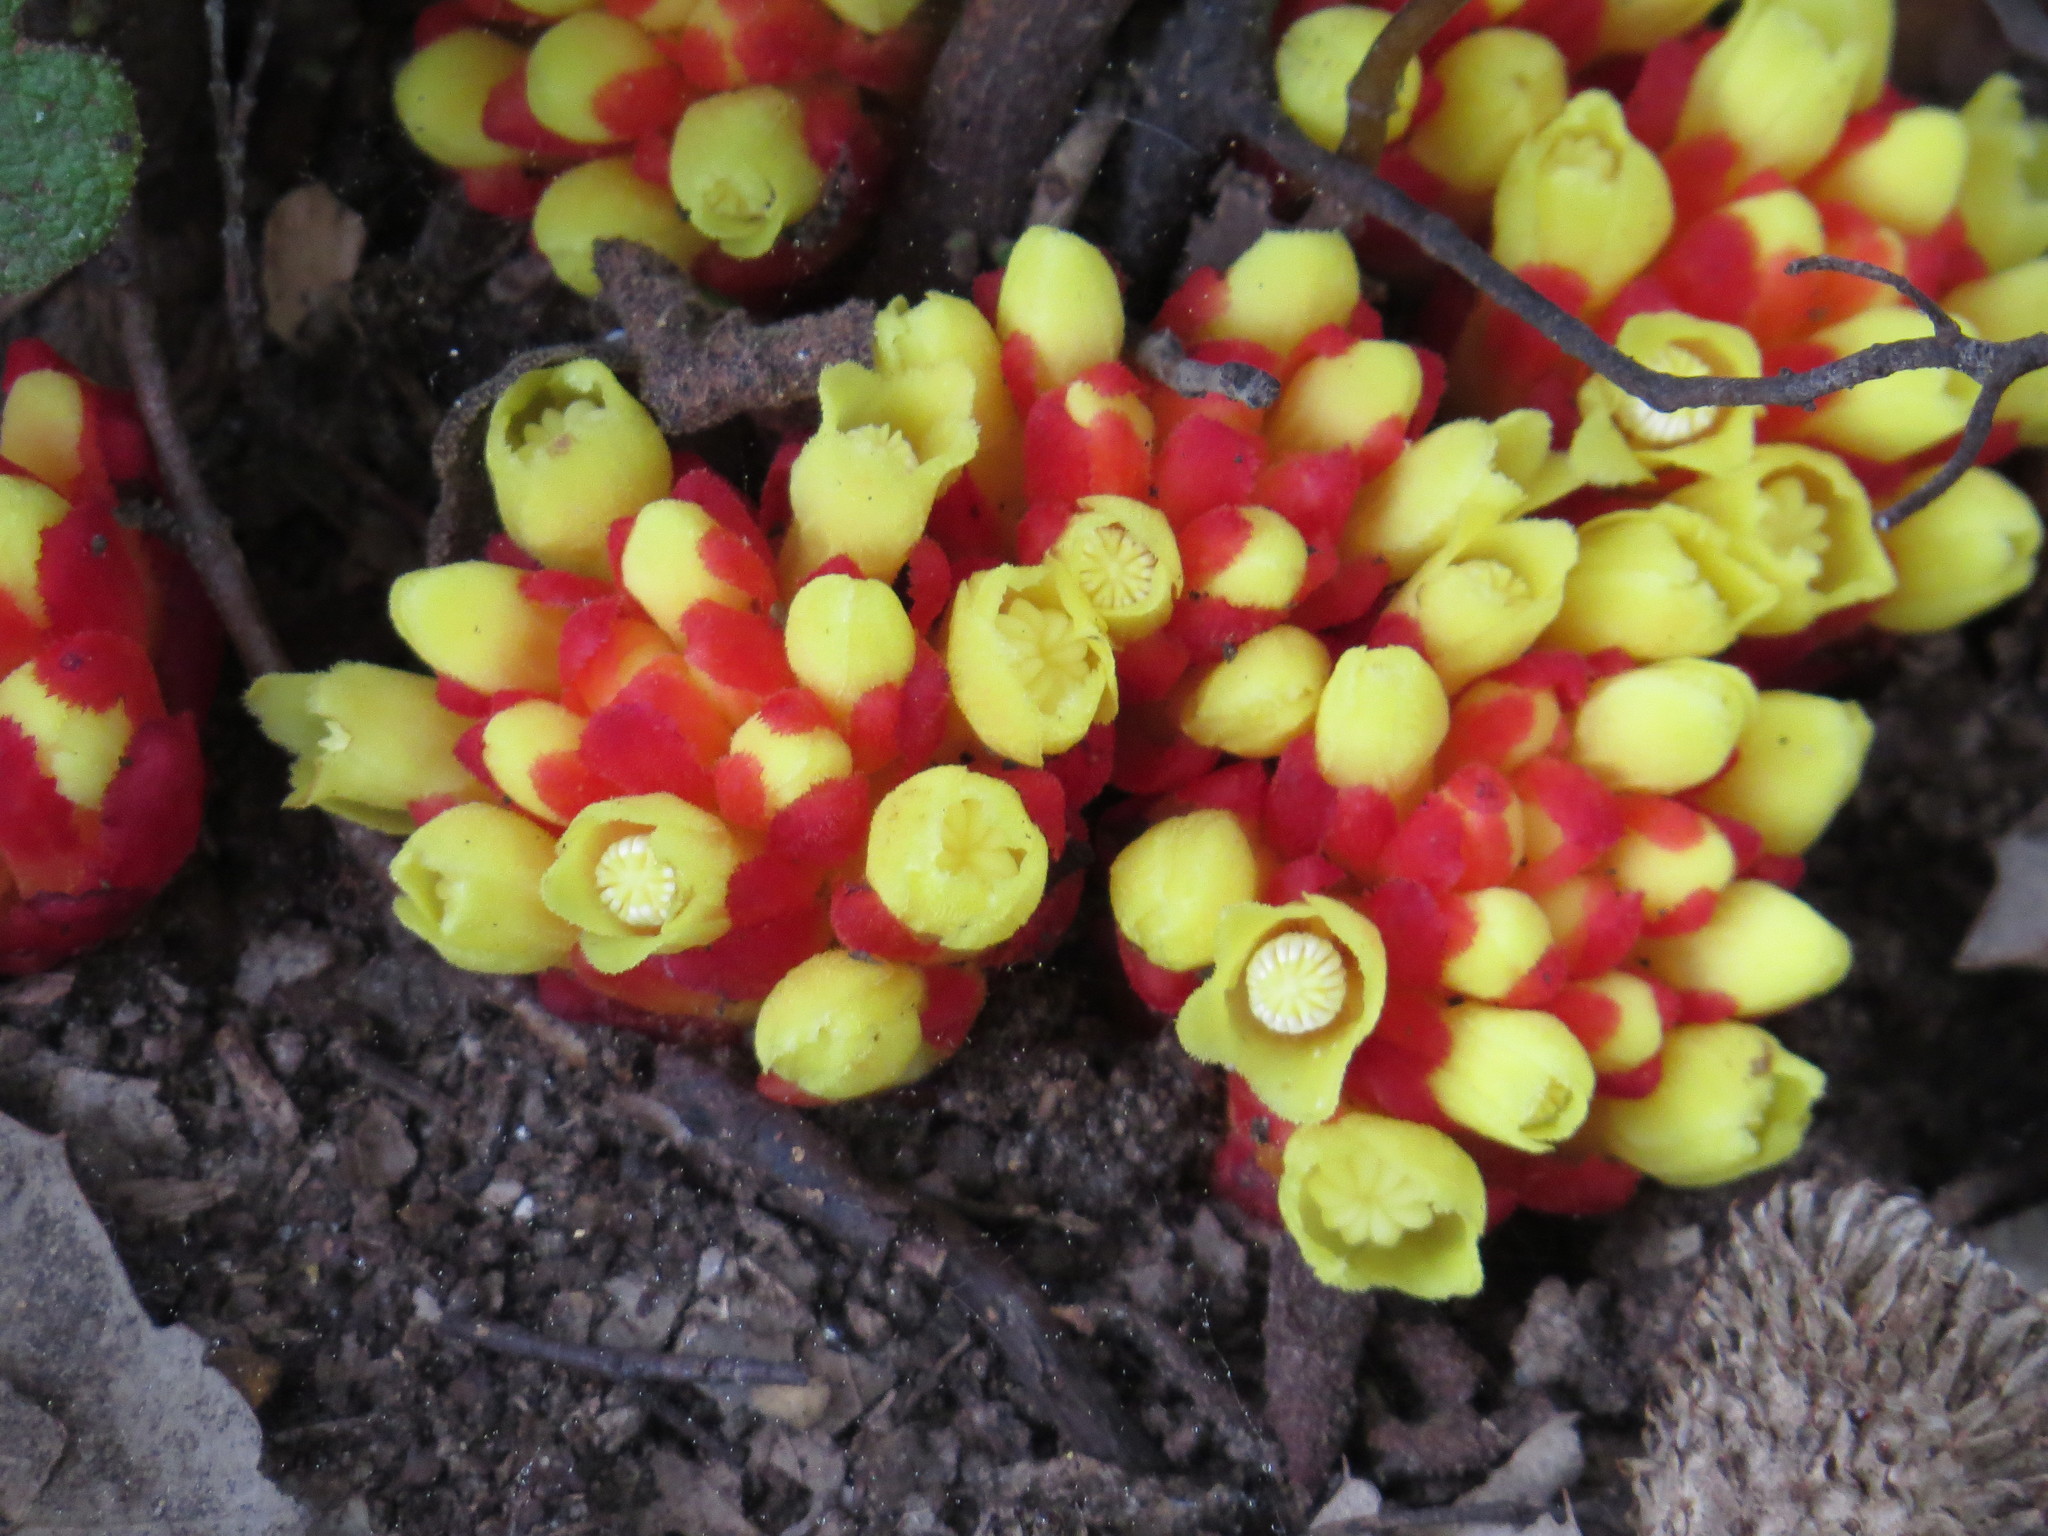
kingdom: Plantae
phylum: Tracheophyta
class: Magnoliopsida
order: Malvales
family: Cytinaceae
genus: Cytinus
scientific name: Cytinus hypocistis
